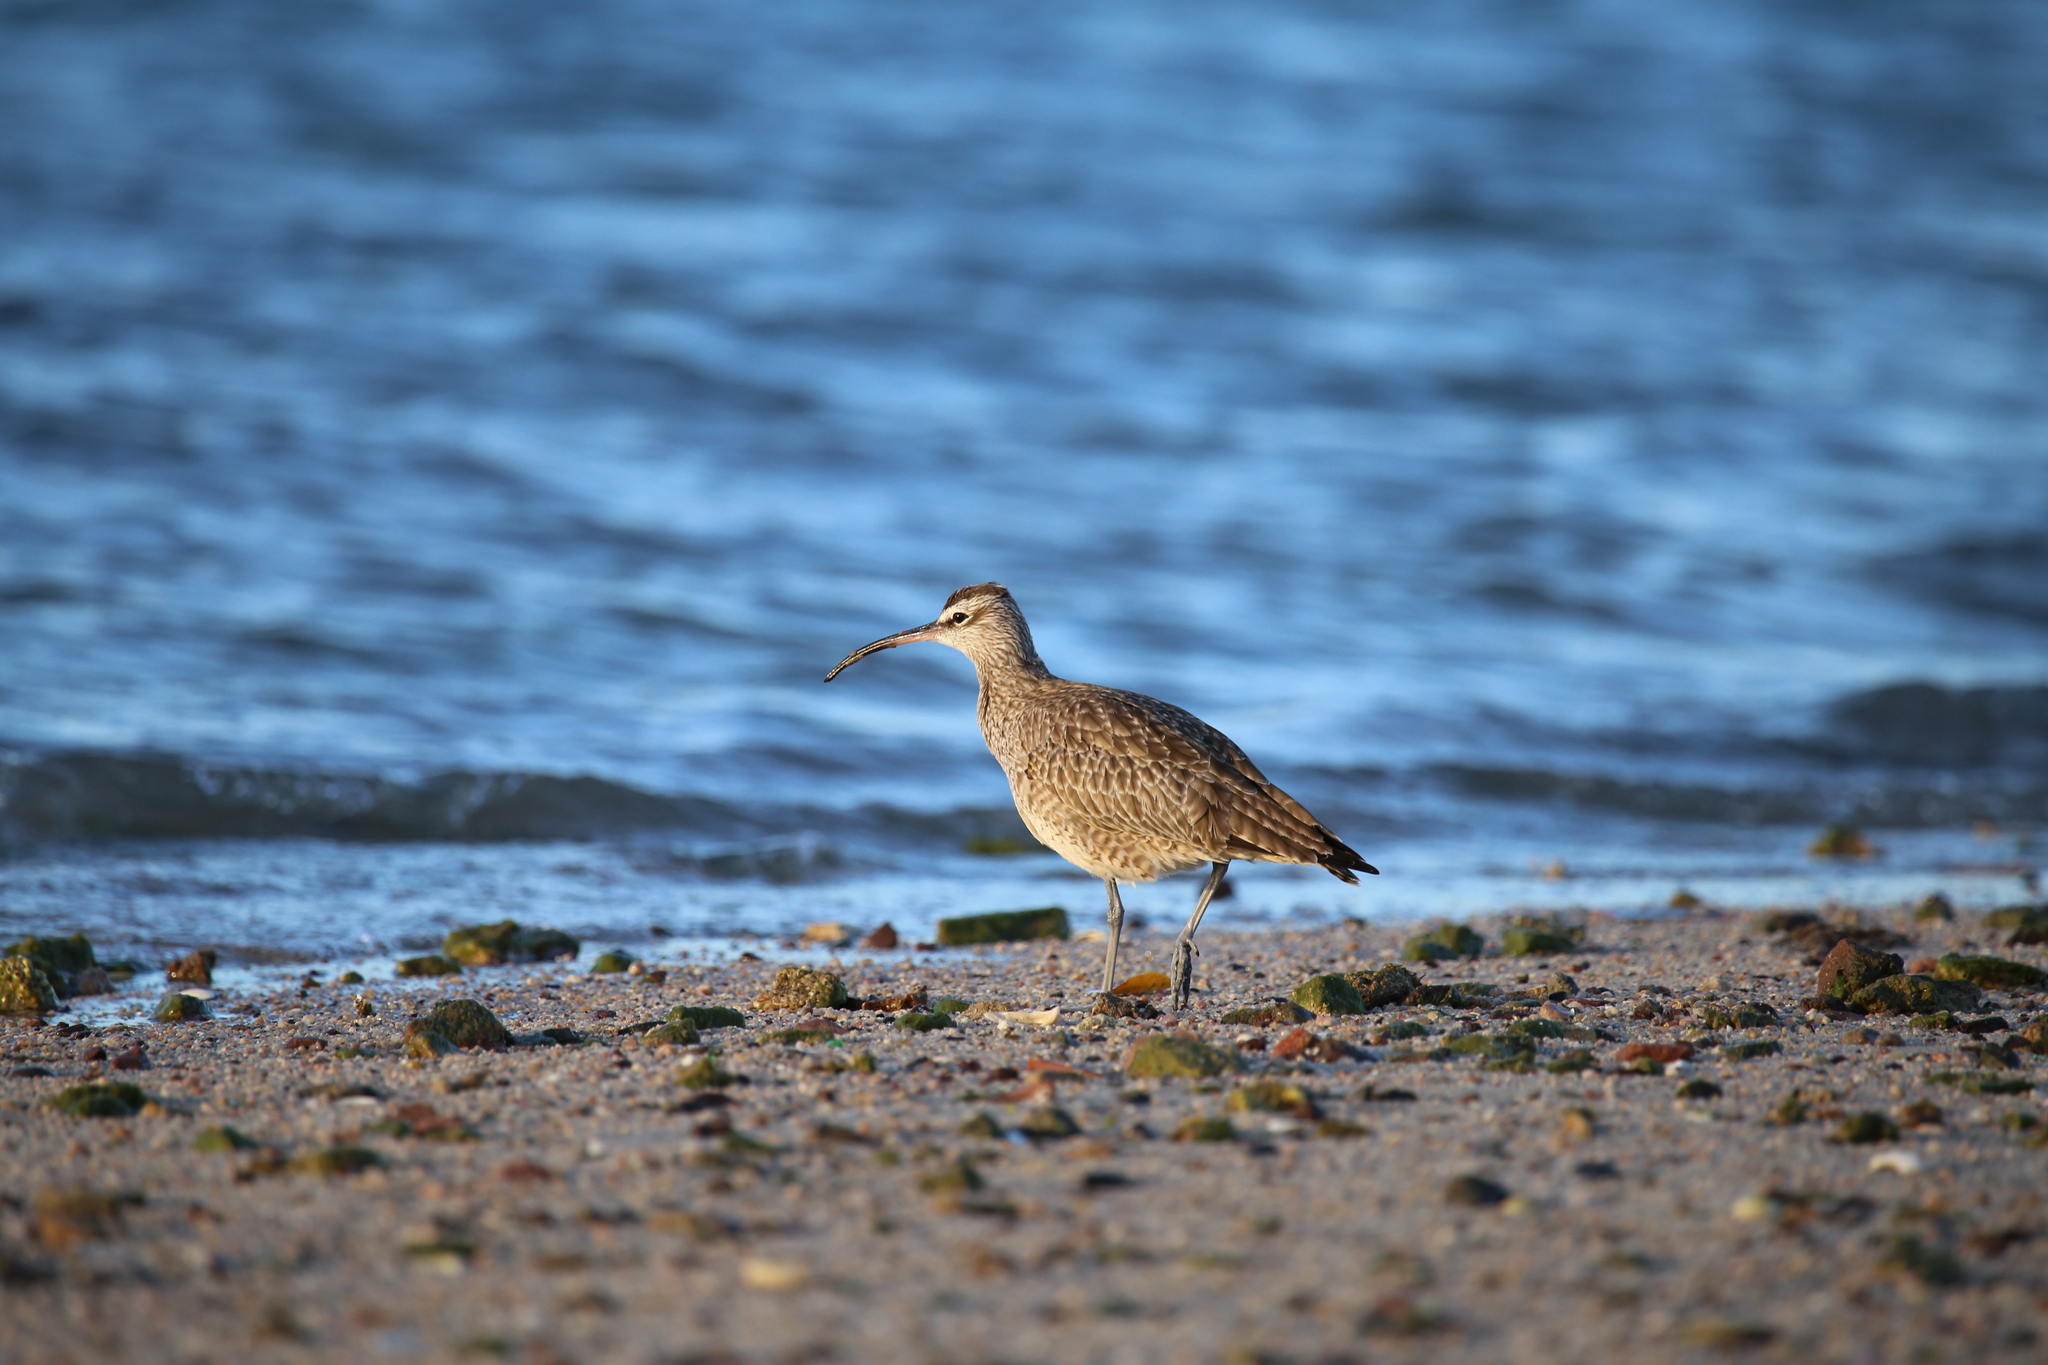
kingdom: Animalia
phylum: Chordata
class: Aves
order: Charadriiformes
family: Scolopacidae
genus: Numenius
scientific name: Numenius phaeopus
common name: Whimbrel
